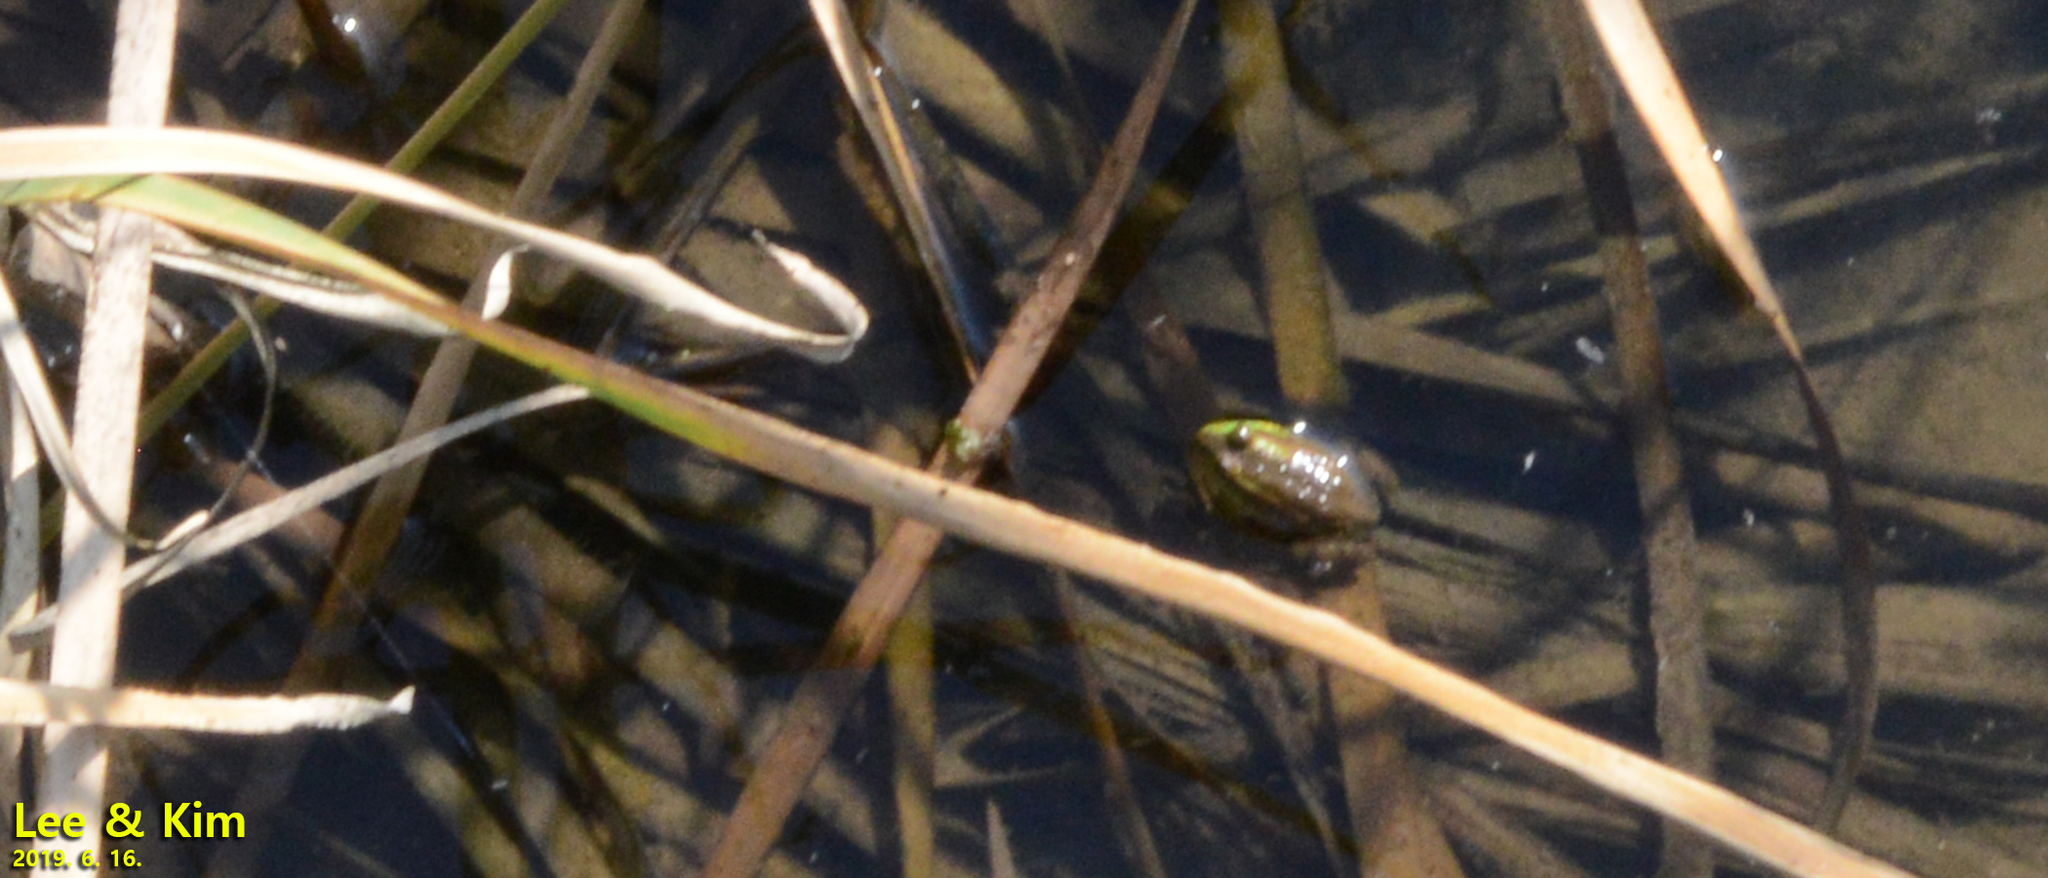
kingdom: Animalia
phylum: Chordata
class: Amphibia
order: Anura
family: Ranidae
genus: Pelophylax
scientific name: Pelophylax chosenicus
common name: Gold-spotted pond frog
